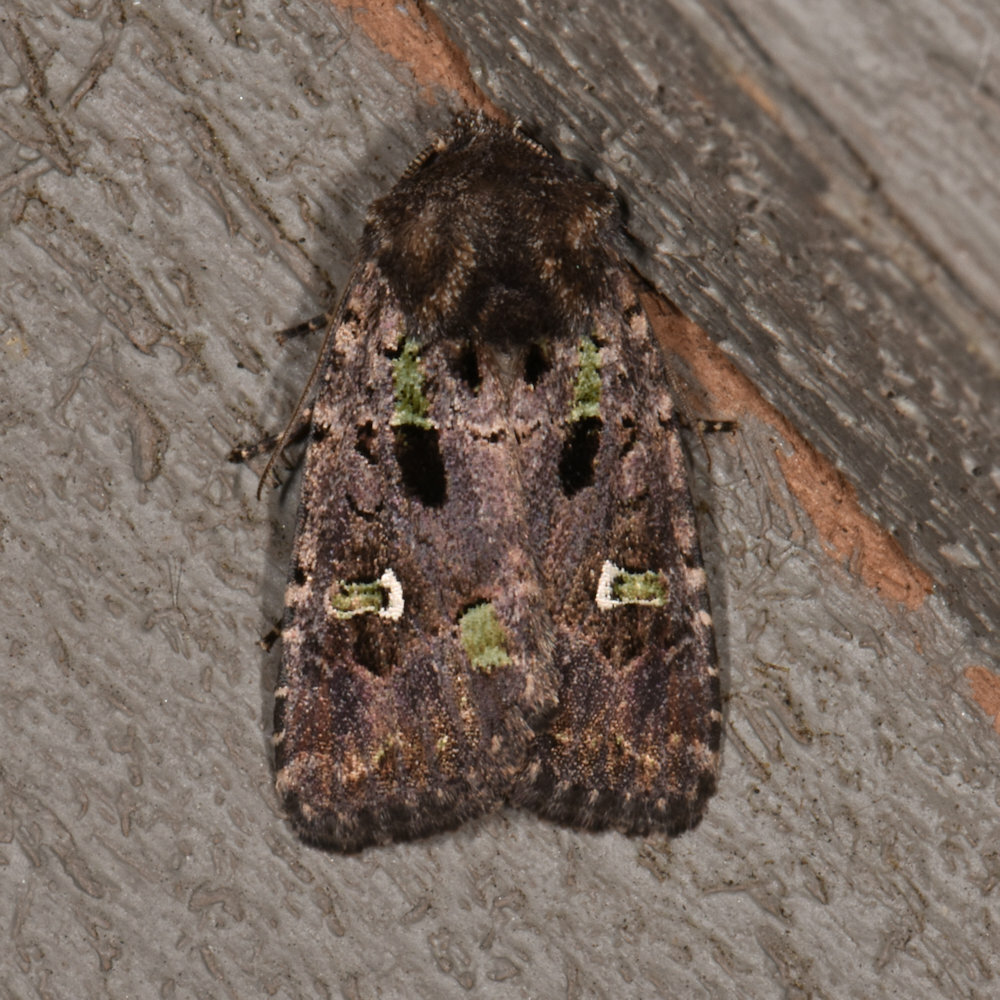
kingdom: Animalia
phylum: Arthropoda
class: Insecta
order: Lepidoptera
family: Noctuidae
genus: Lacinipolia
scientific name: Lacinipolia renigera
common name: Kidney-spotted minor
